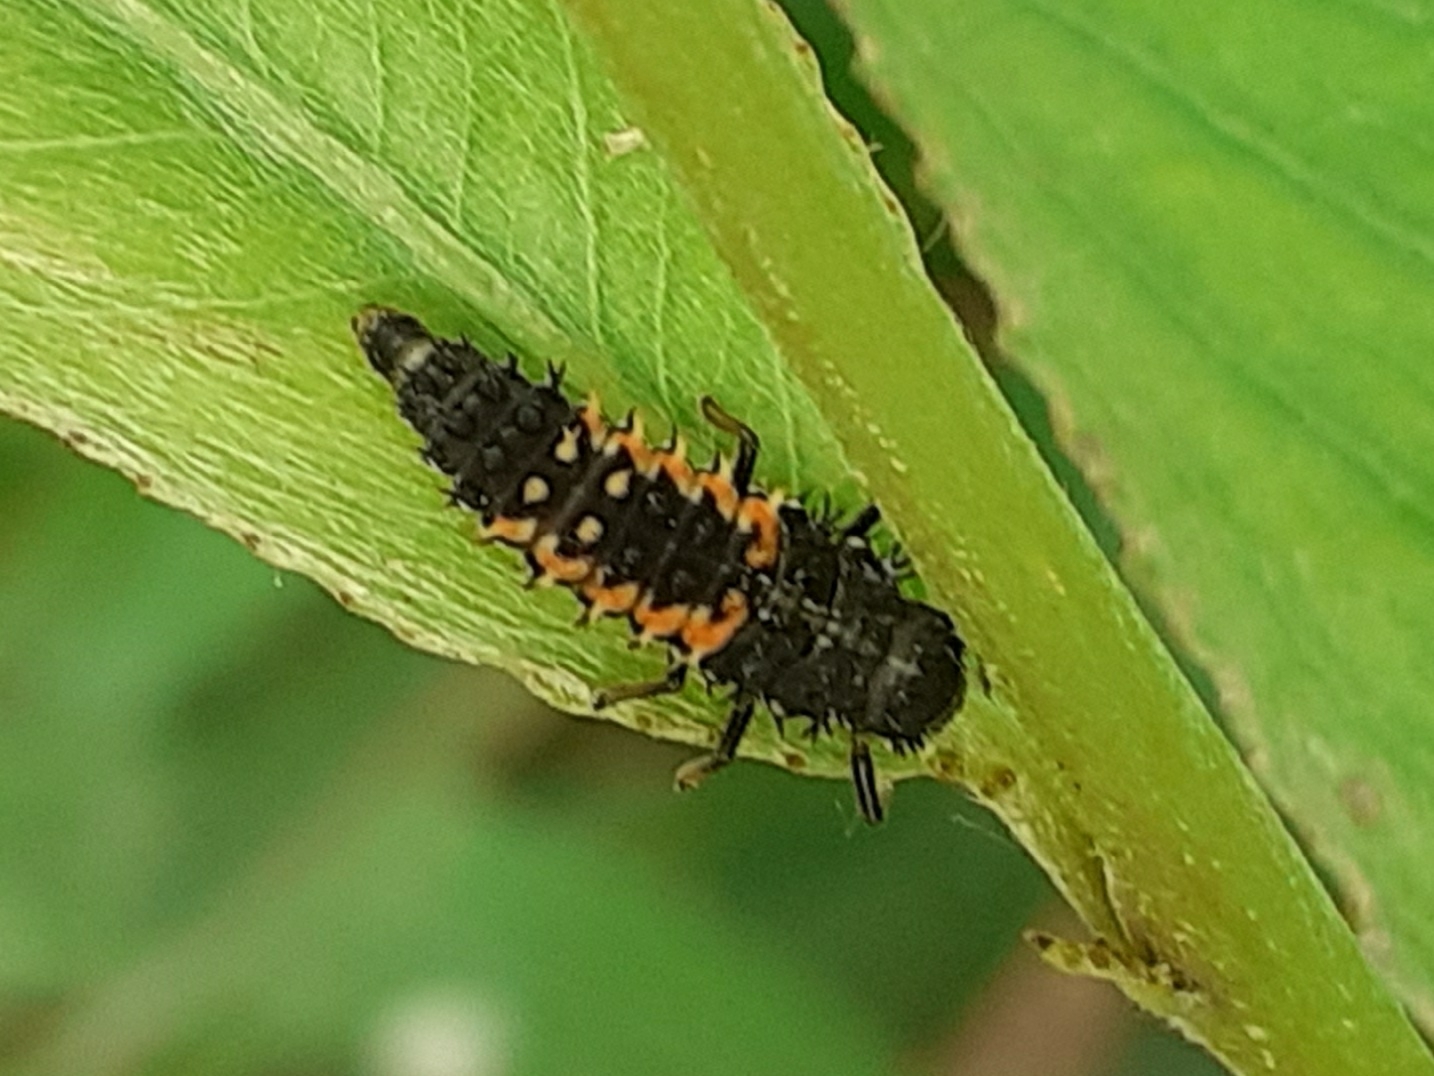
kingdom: Animalia
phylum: Arthropoda
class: Insecta
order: Coleoptera
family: Coccinellidae
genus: Harmonia
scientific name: Harmonia axyridis
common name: Harlequin ladybird
